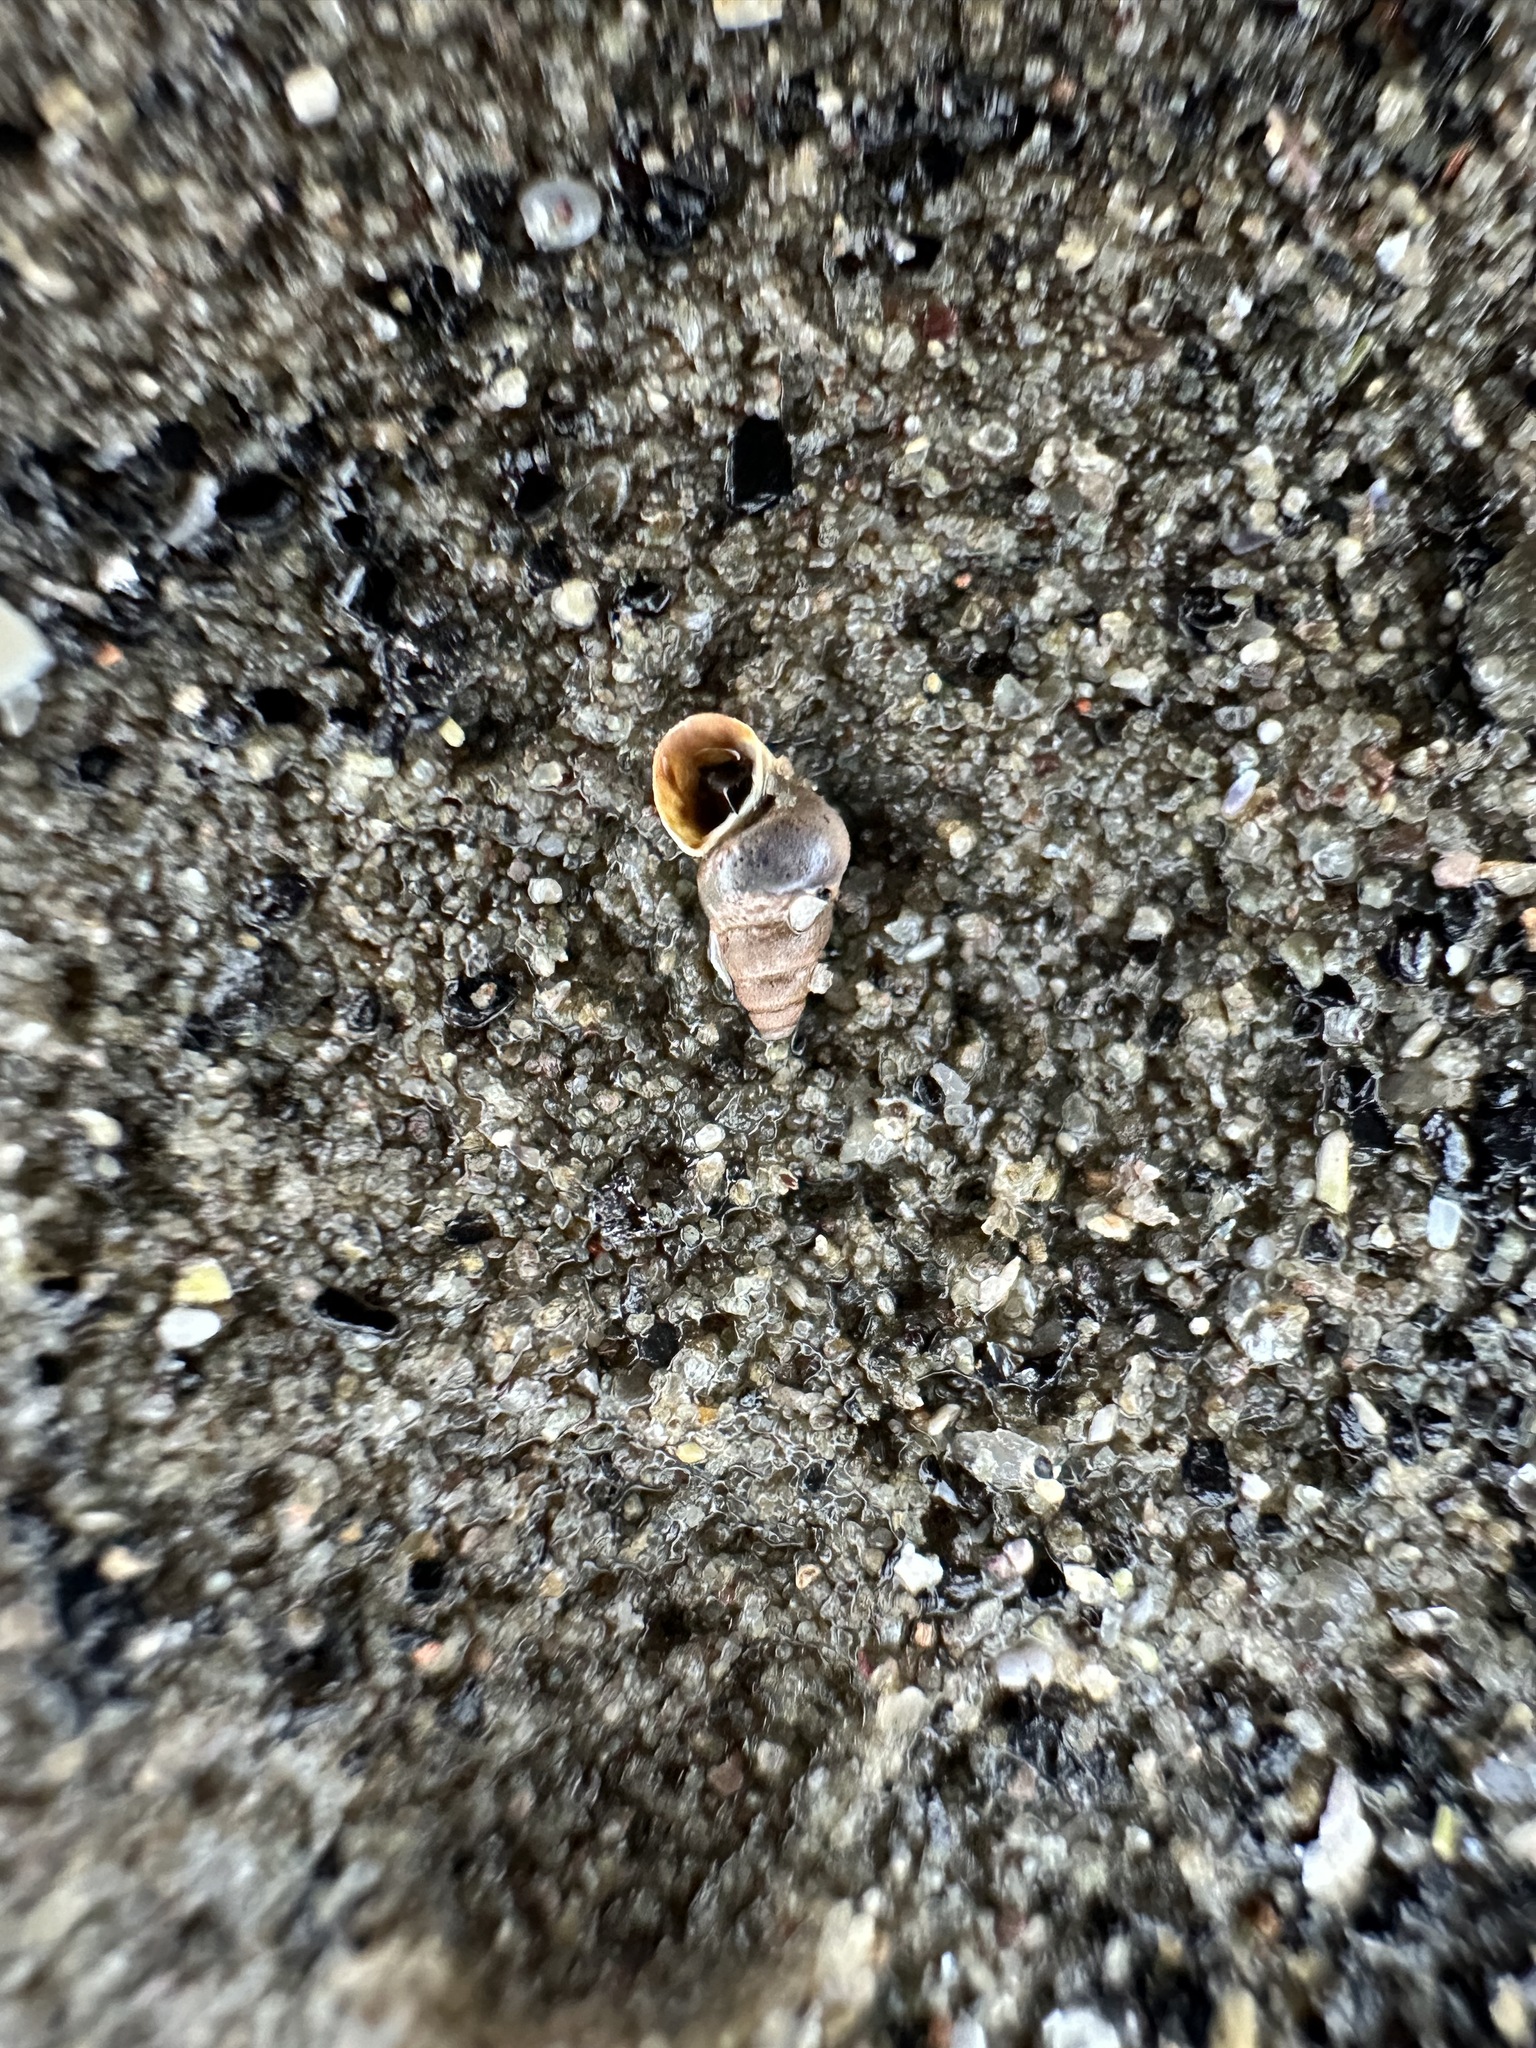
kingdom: Animalia
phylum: Mollusca
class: Gastropoda
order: Neogastropoda
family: Nassariidae
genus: Ilyanassa
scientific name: Ilyanassa trivittata
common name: Three-line mudsnail
